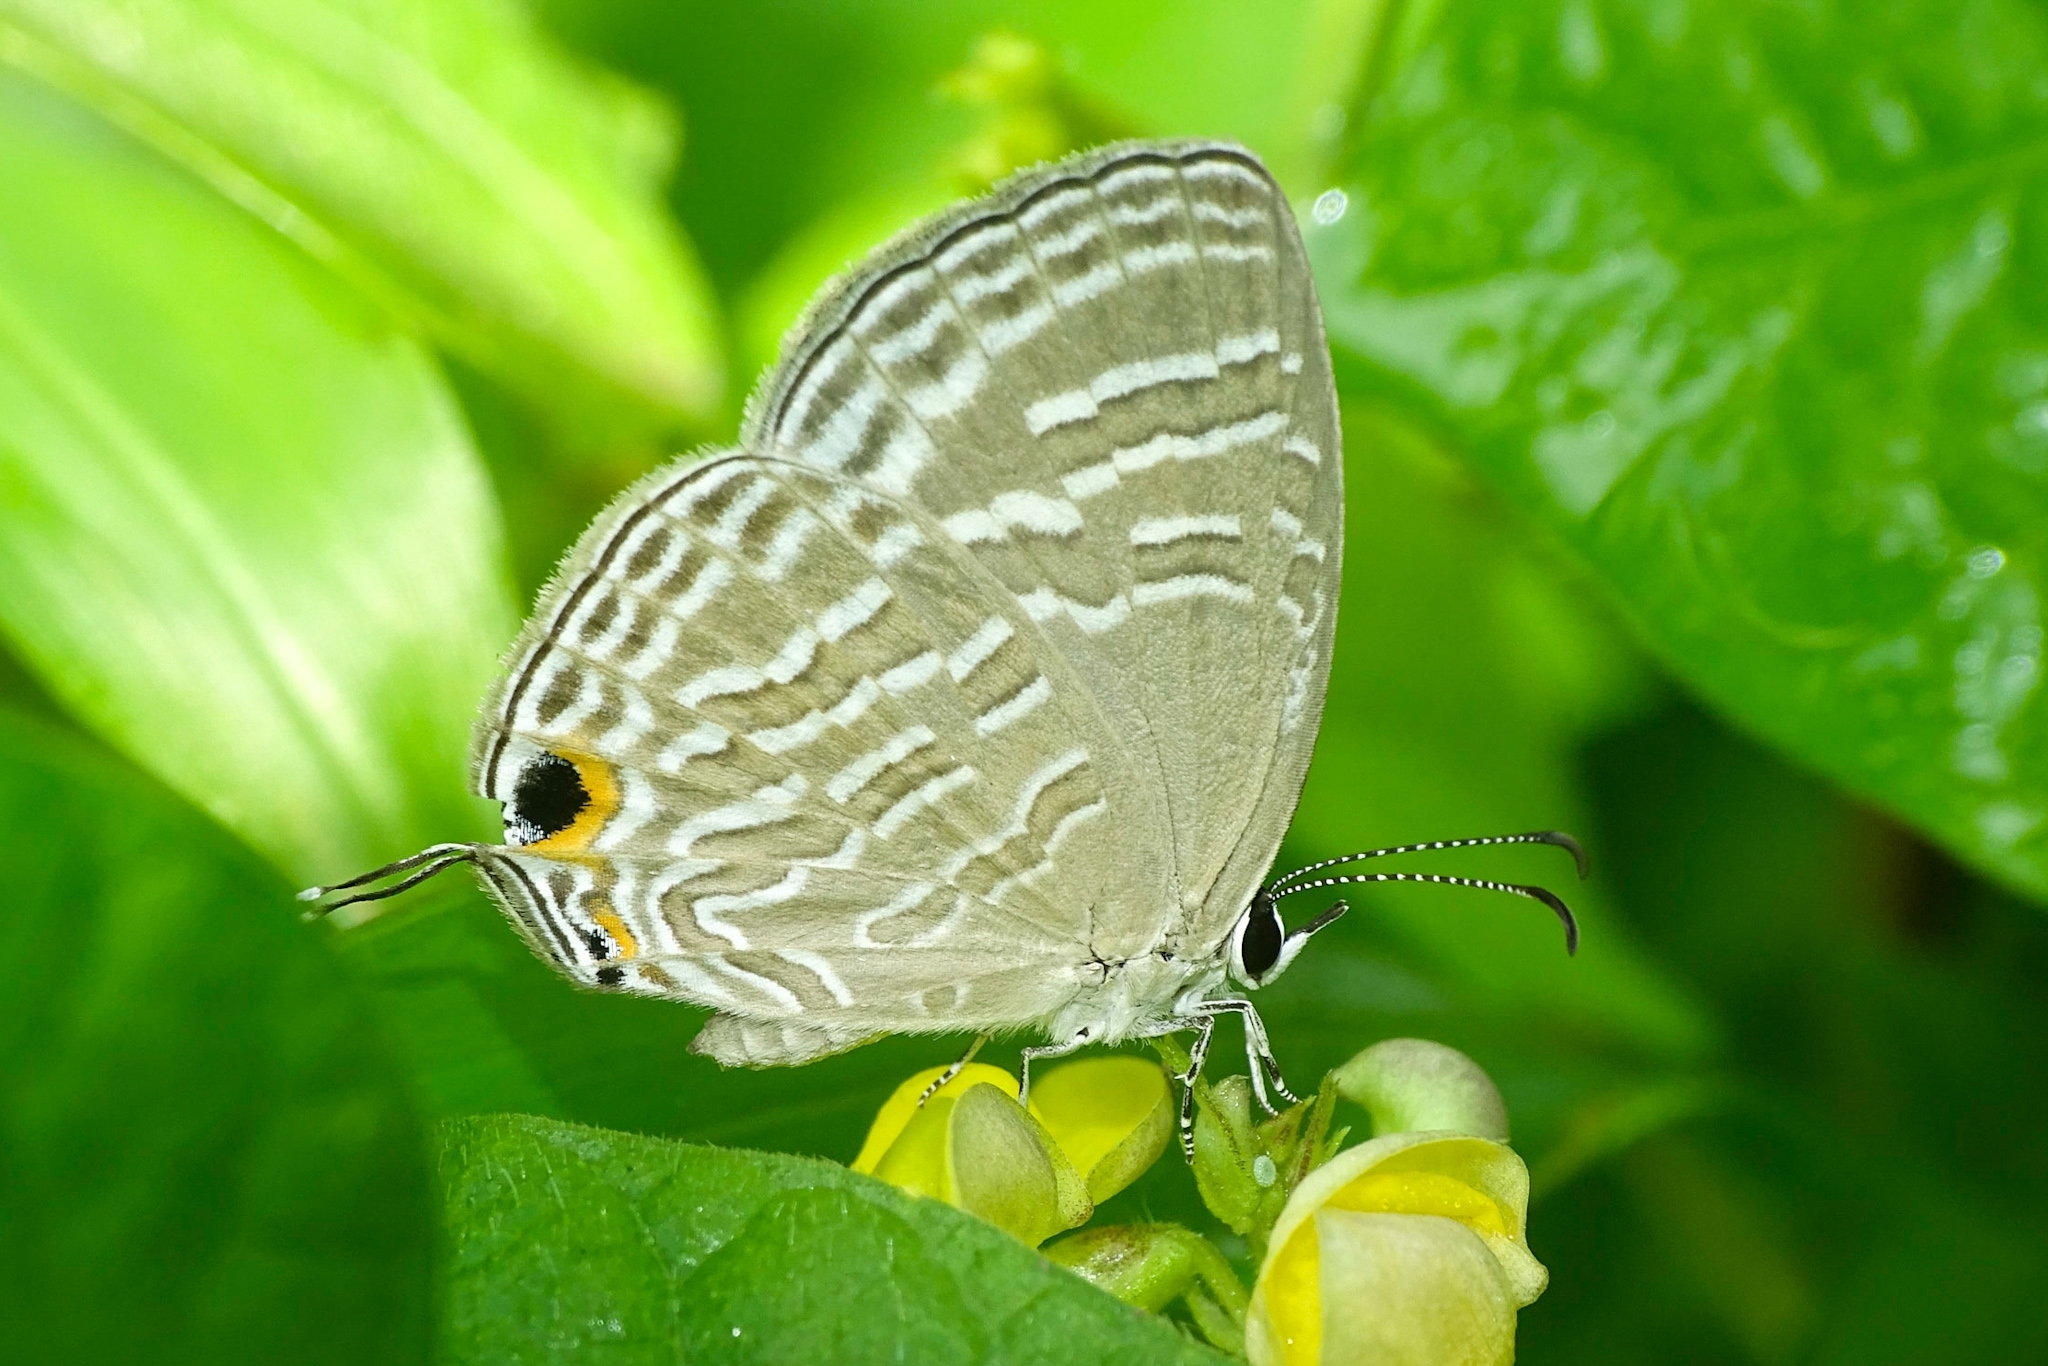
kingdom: Animalia
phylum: Arthropoda
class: Insecta
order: Lepidoptera
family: Lycaenidae
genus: Jamides
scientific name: Jamides celeno
